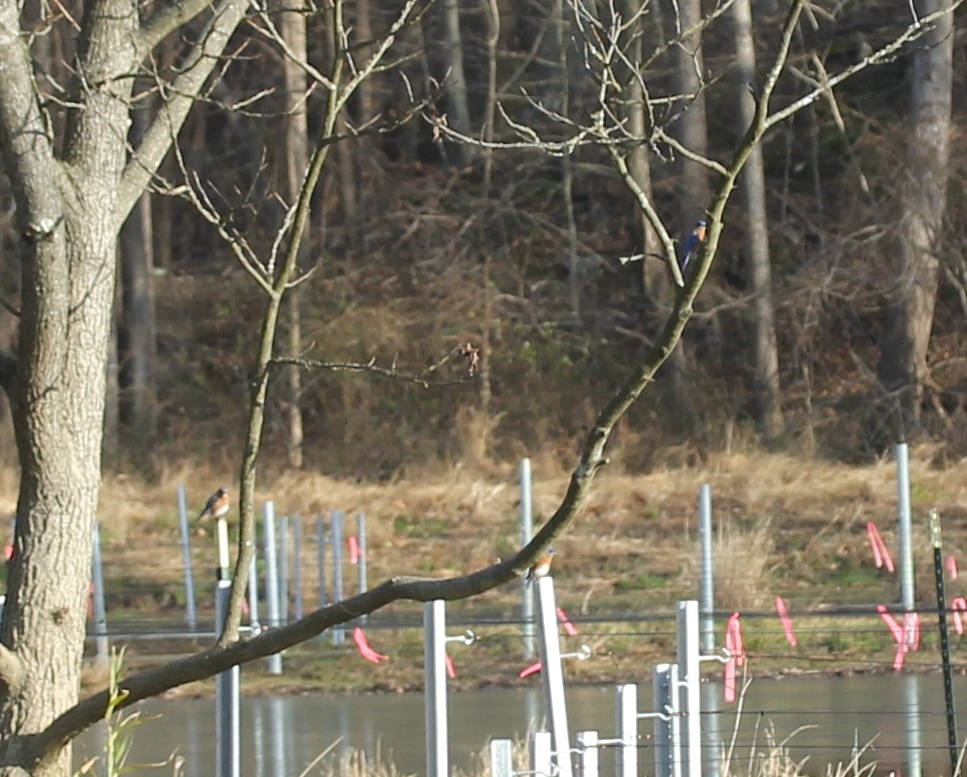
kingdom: Animalia
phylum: Chordata
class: Aves
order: Passeriformes
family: Turdidae
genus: Sialia
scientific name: Sialia sialis
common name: Eastern bluebird
